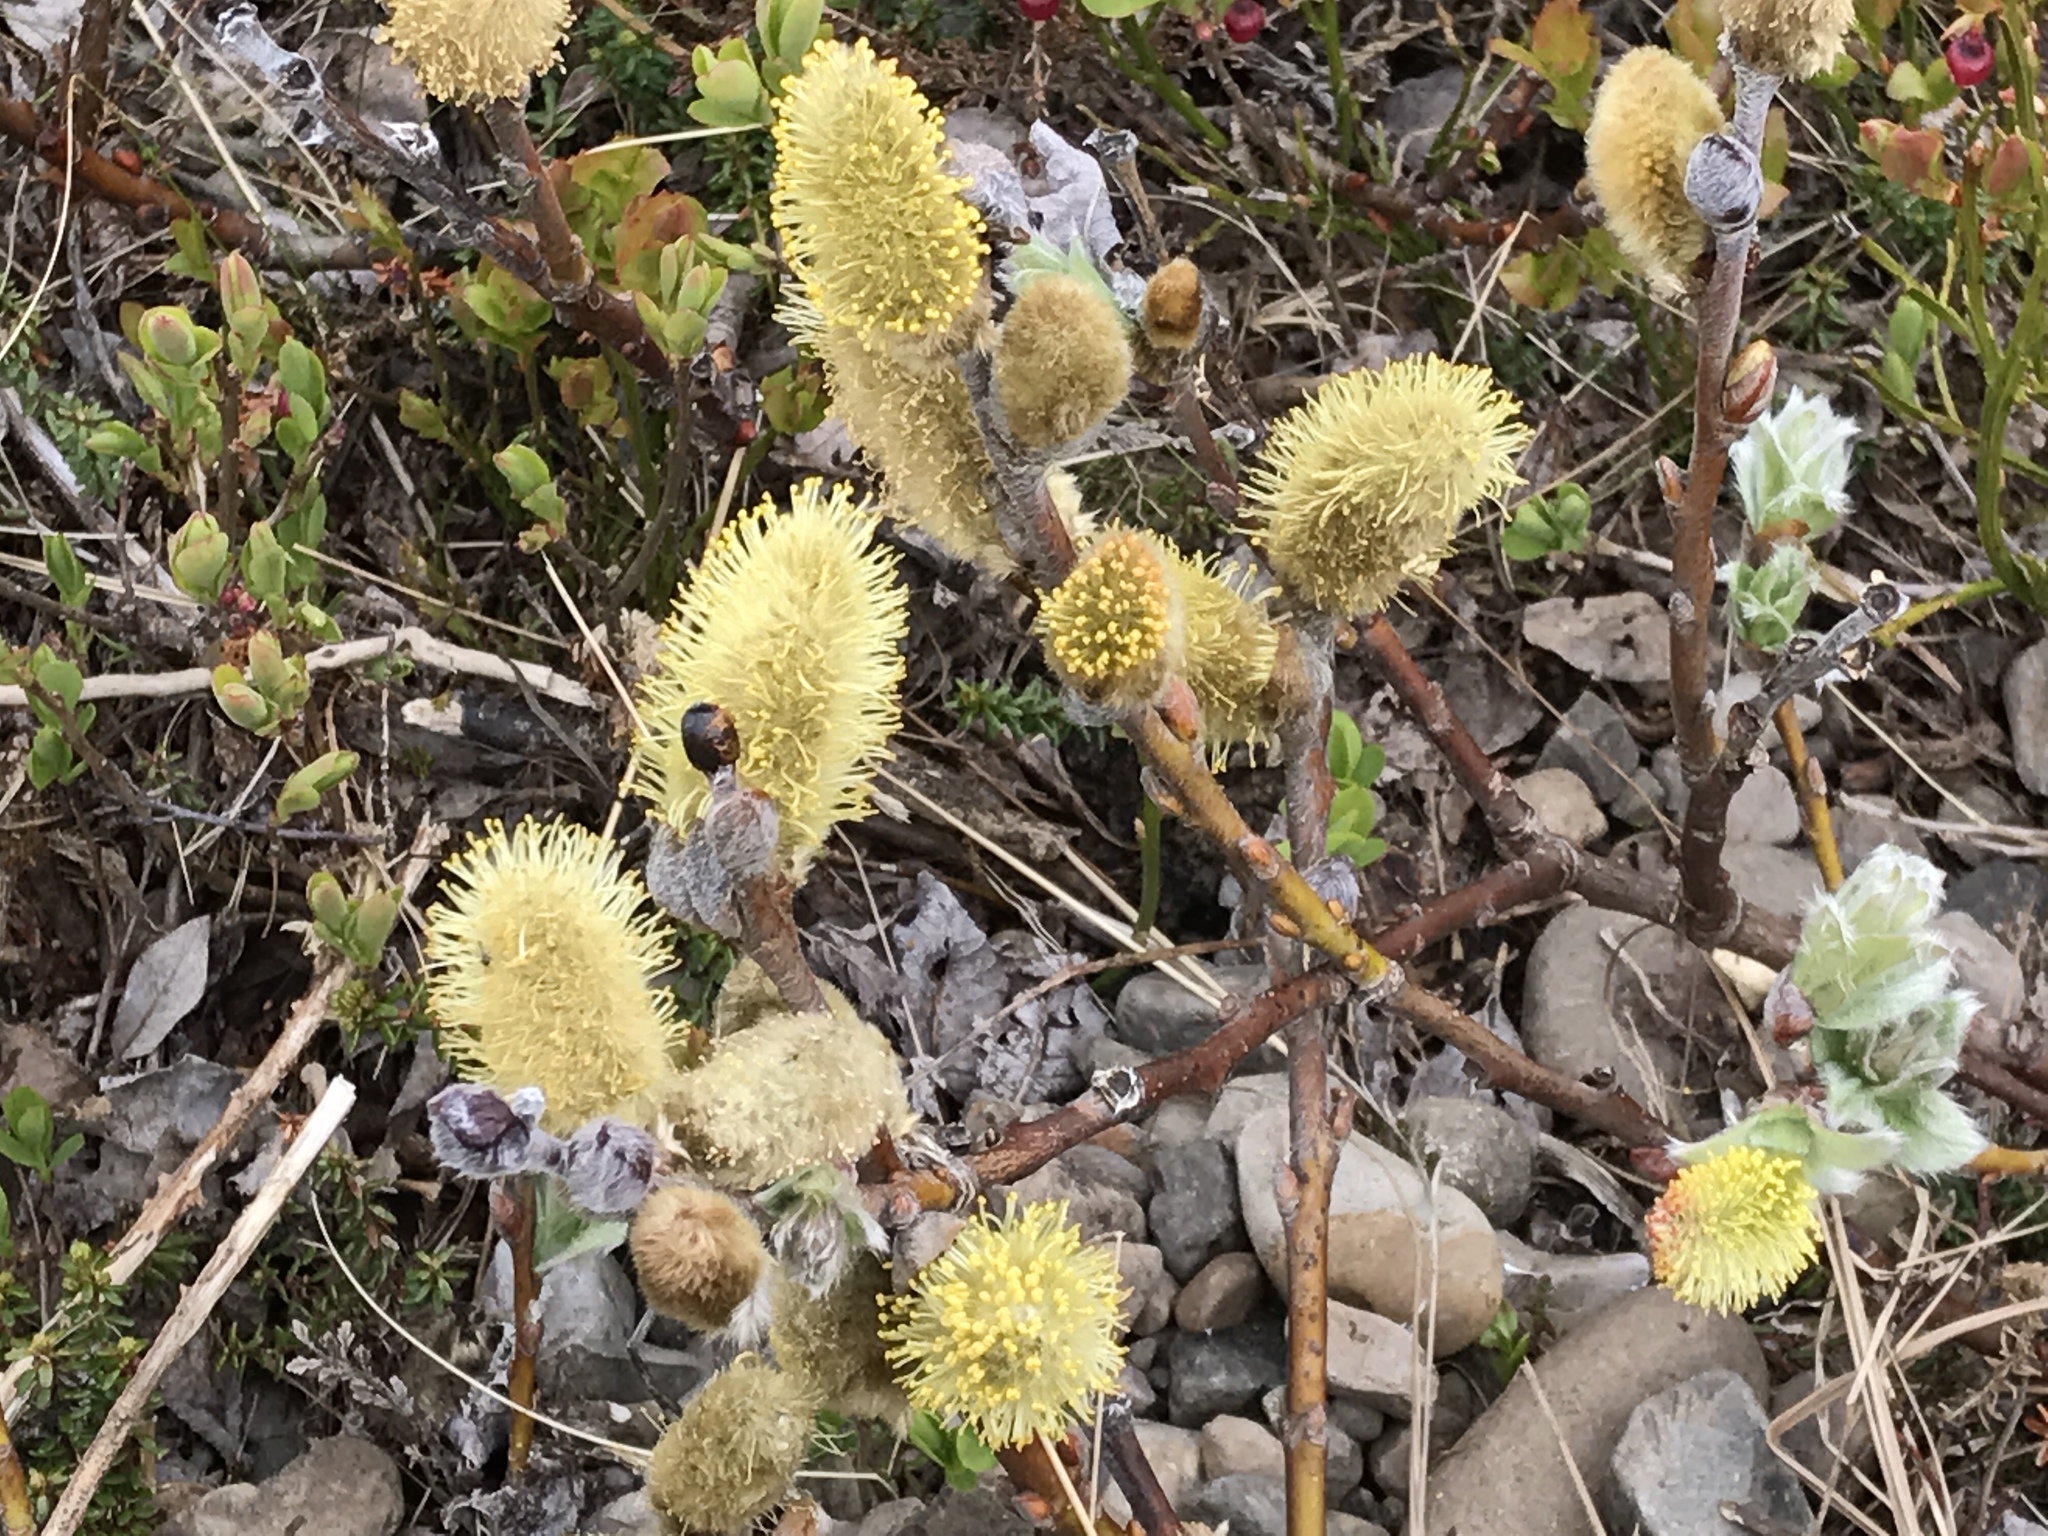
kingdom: Plantae
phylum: Tracheophyta
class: Magnoliopsida
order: Malpighiales
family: Salicaceae
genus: Salix
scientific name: Salix lanata
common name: Woolly willow
